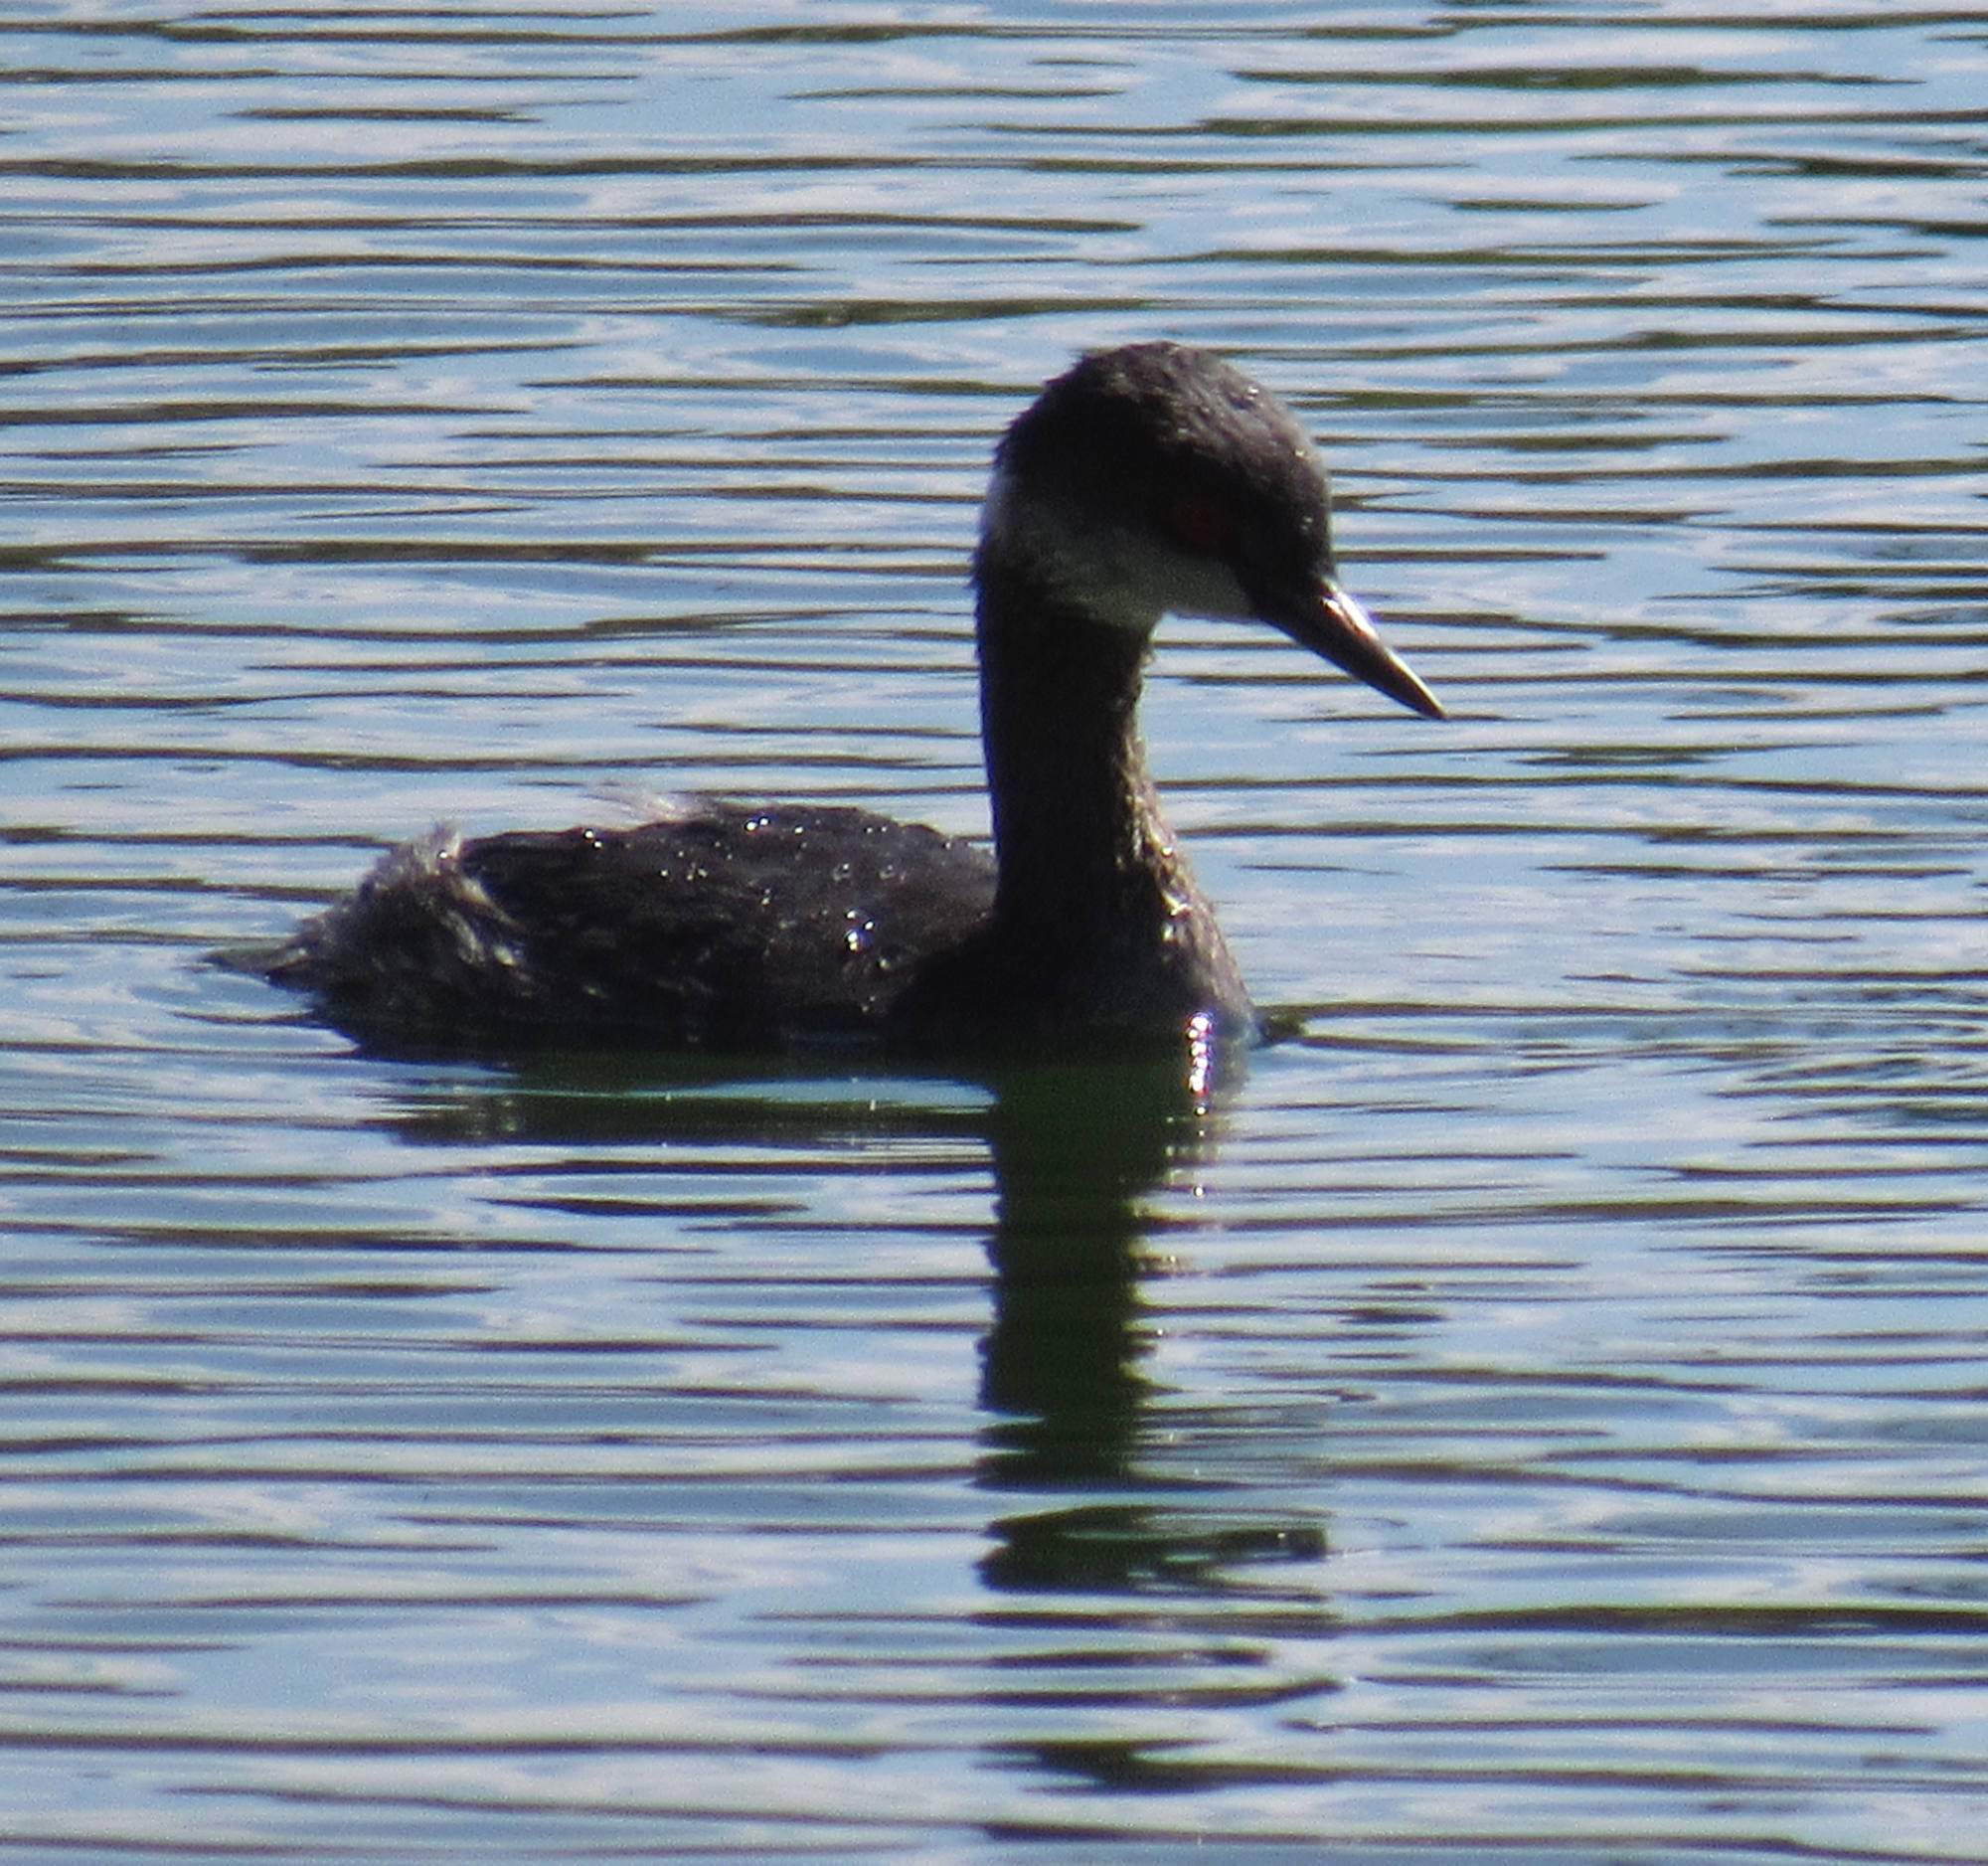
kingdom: Animalia
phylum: Chordata
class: Aves
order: Podicipediformes
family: Podicipedidae
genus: Podiceps
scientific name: Podiceps nigricollis
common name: Black-necked grebe
